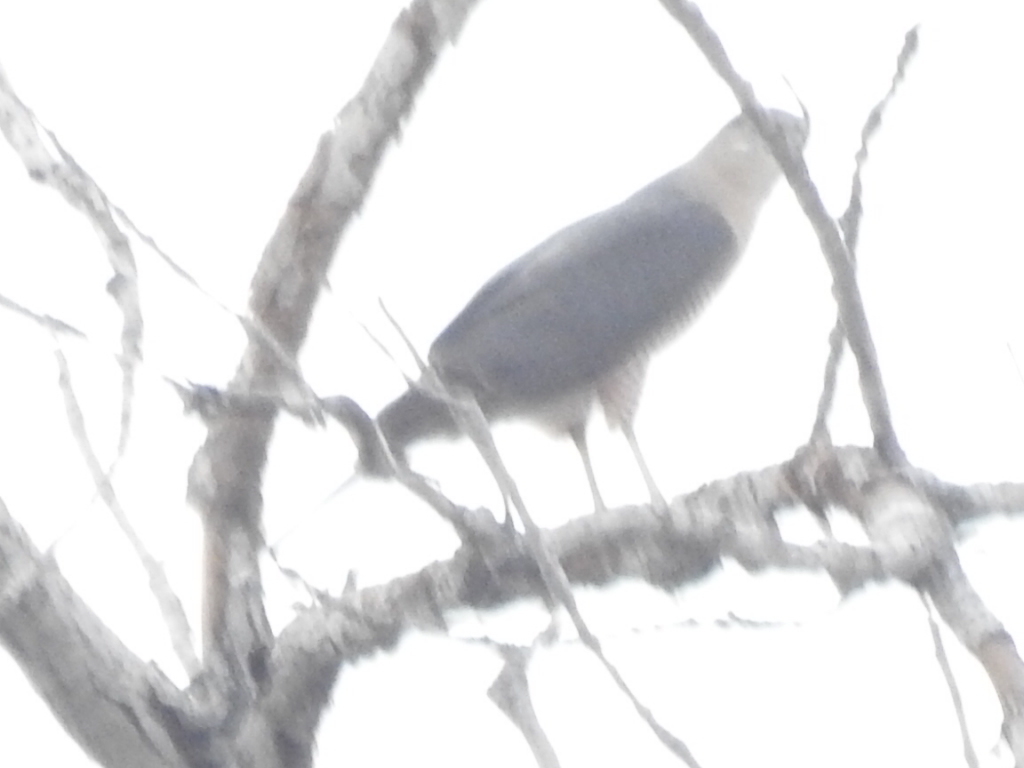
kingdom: Animalia
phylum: Chordata
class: Aves
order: Accipitriformes
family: Accipitridae
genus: Accipiter
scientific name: Accipiter cooperii
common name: Cooper's hawk
